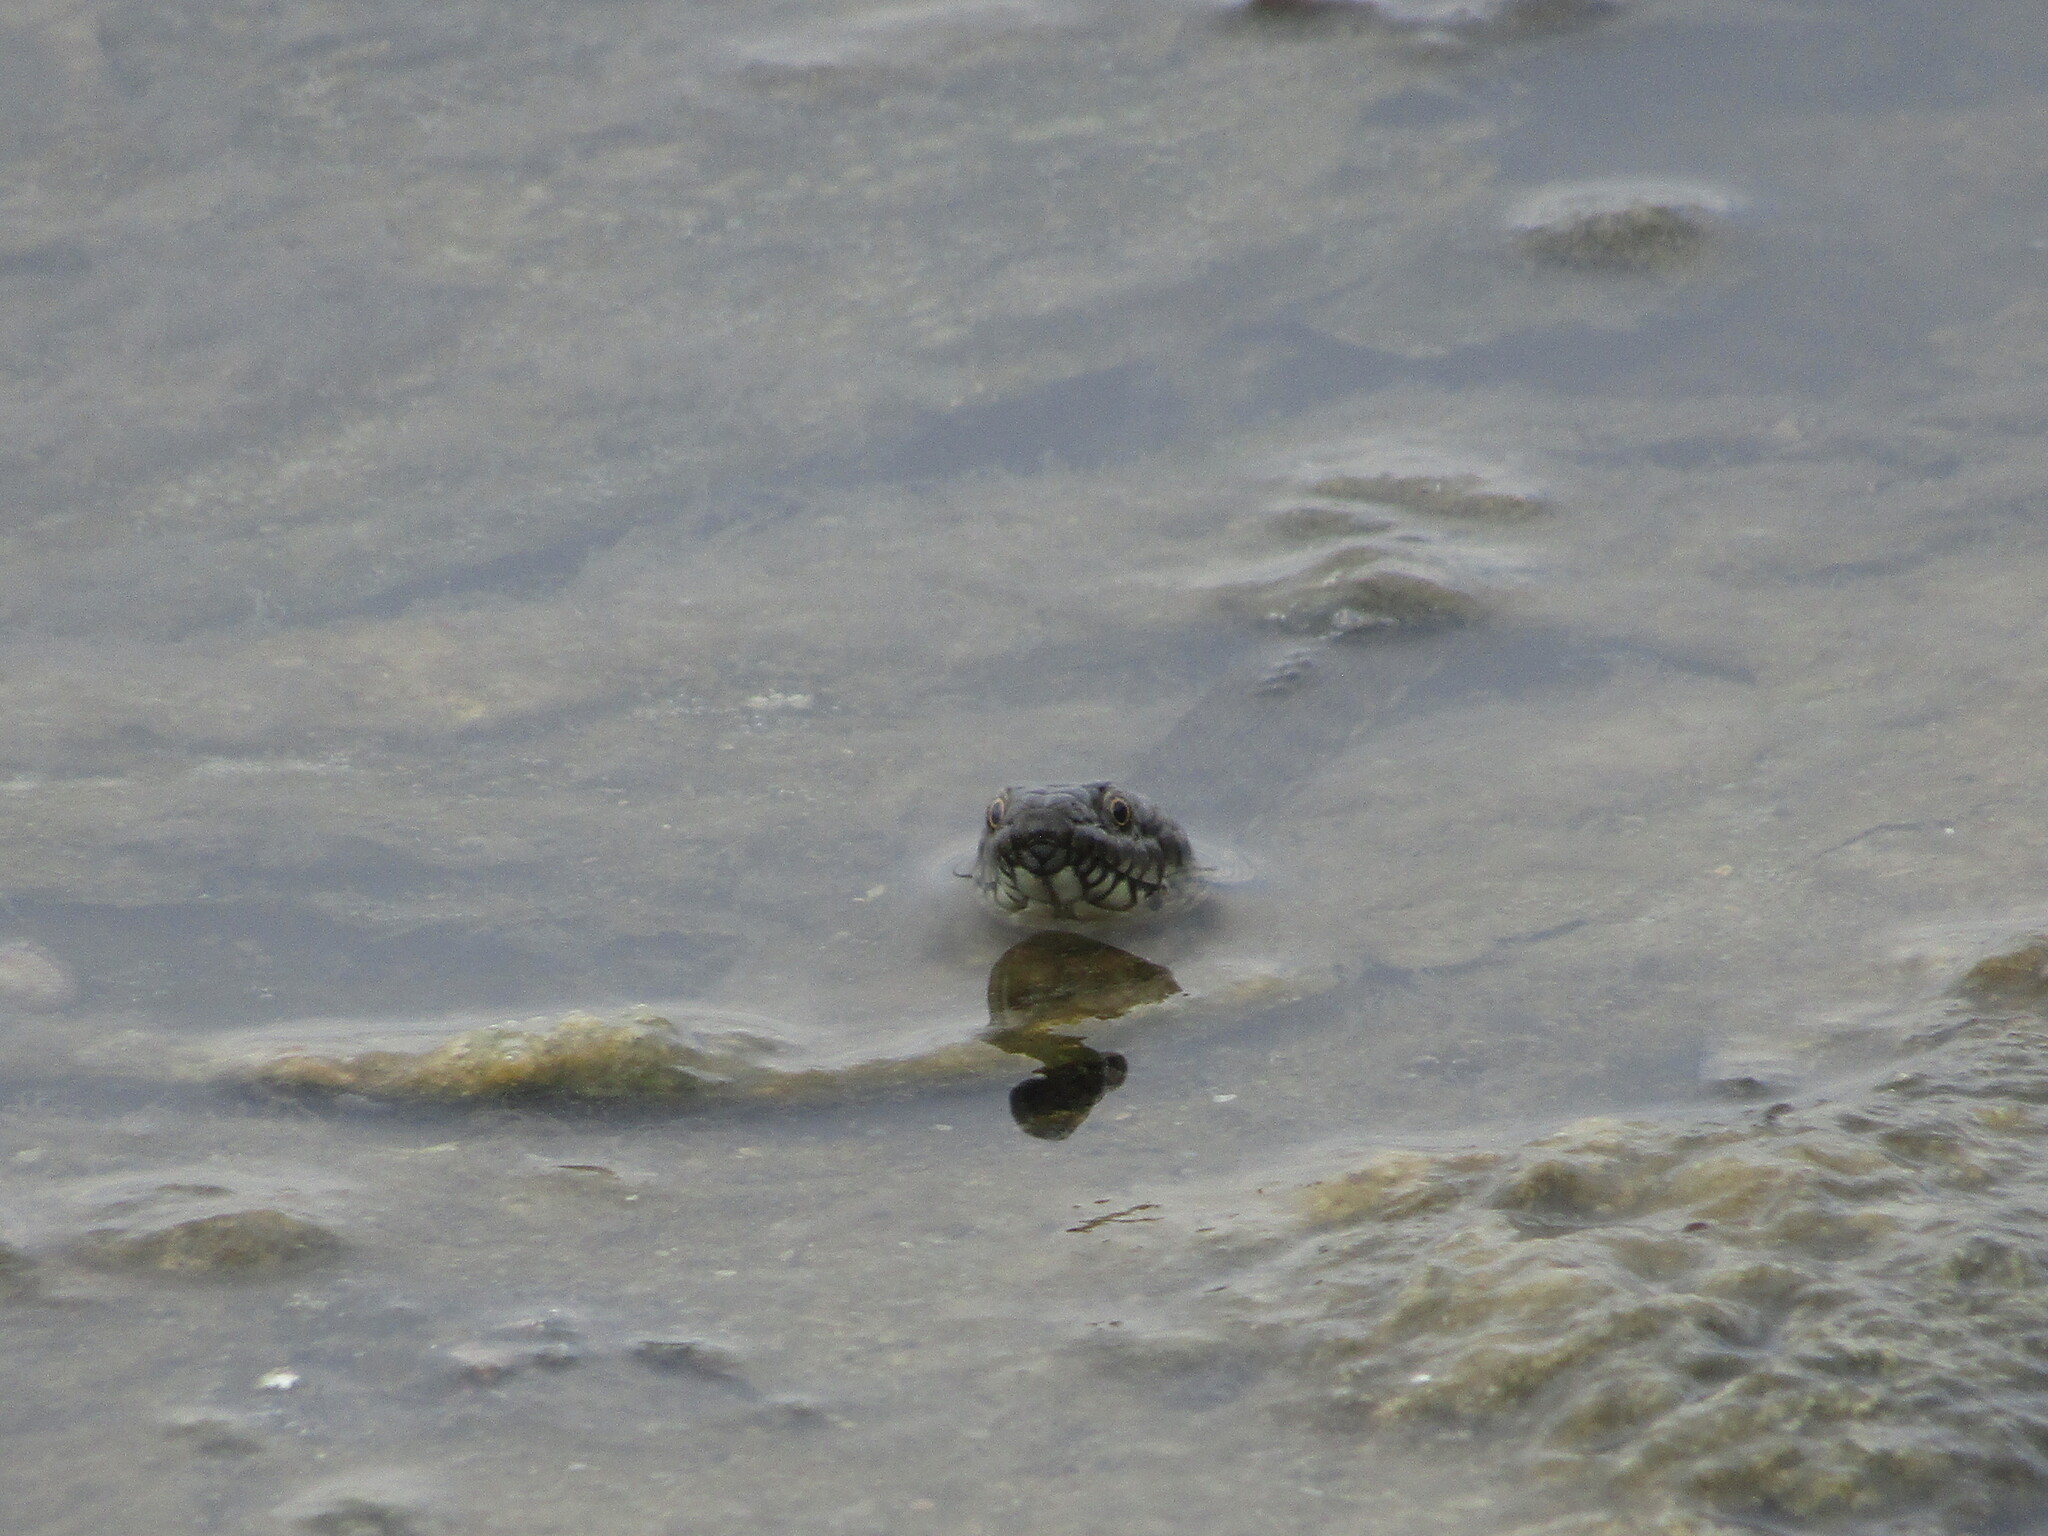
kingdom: Animalia
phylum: Chordata
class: Squamata
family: Colubridae
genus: Natrix
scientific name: Natrix tessellata
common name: Dice snake
